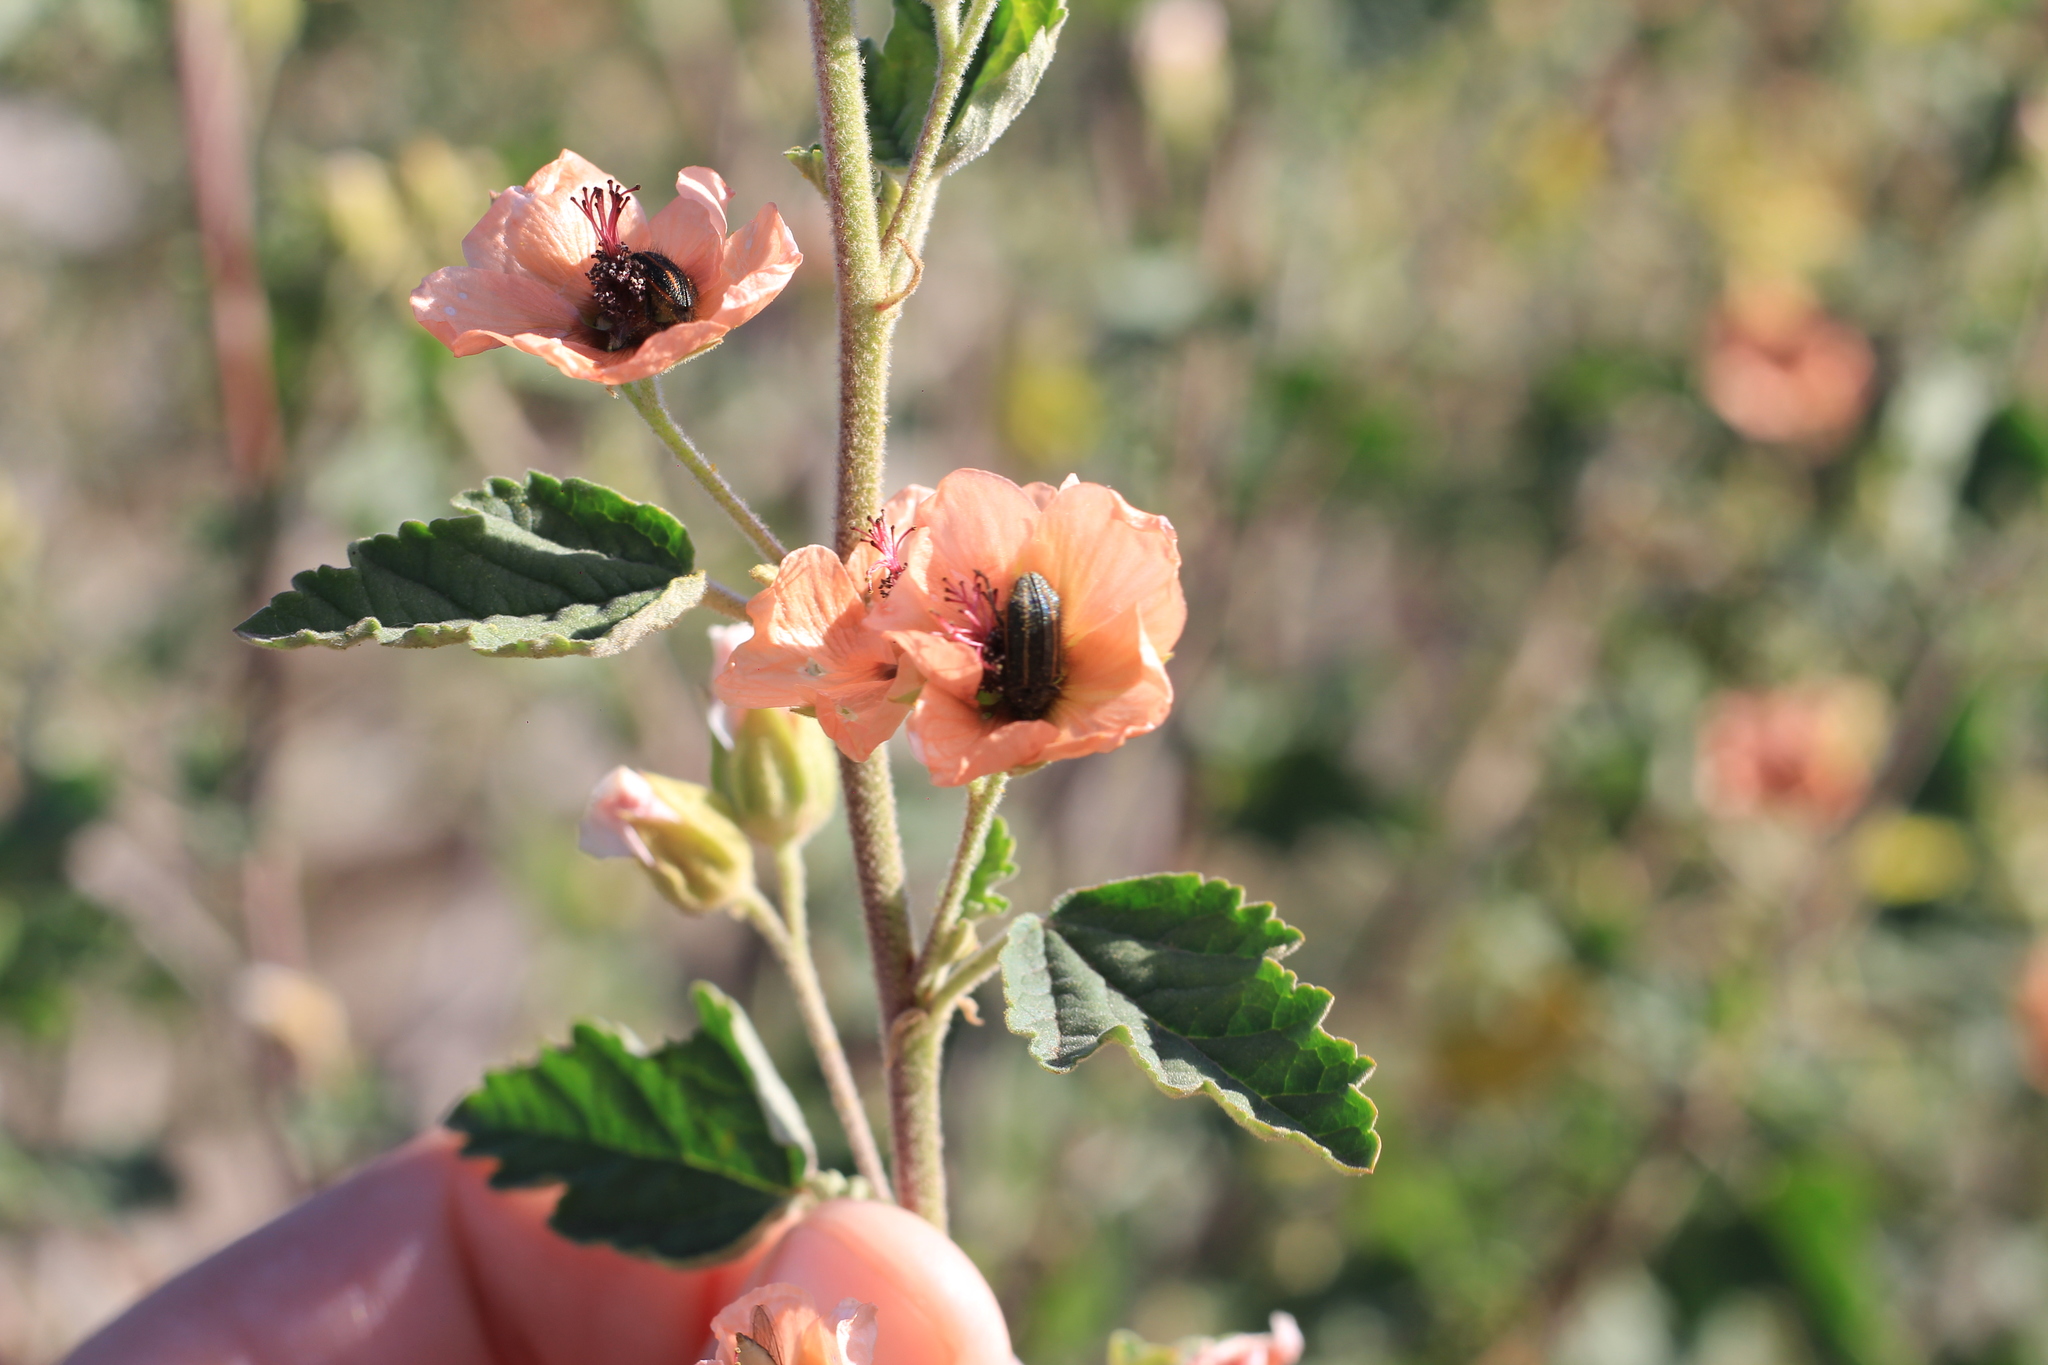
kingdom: Animalia
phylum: Arthropoda
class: Insecta
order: Coleoptera
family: Melyridae
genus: Astylus
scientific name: Astylus
